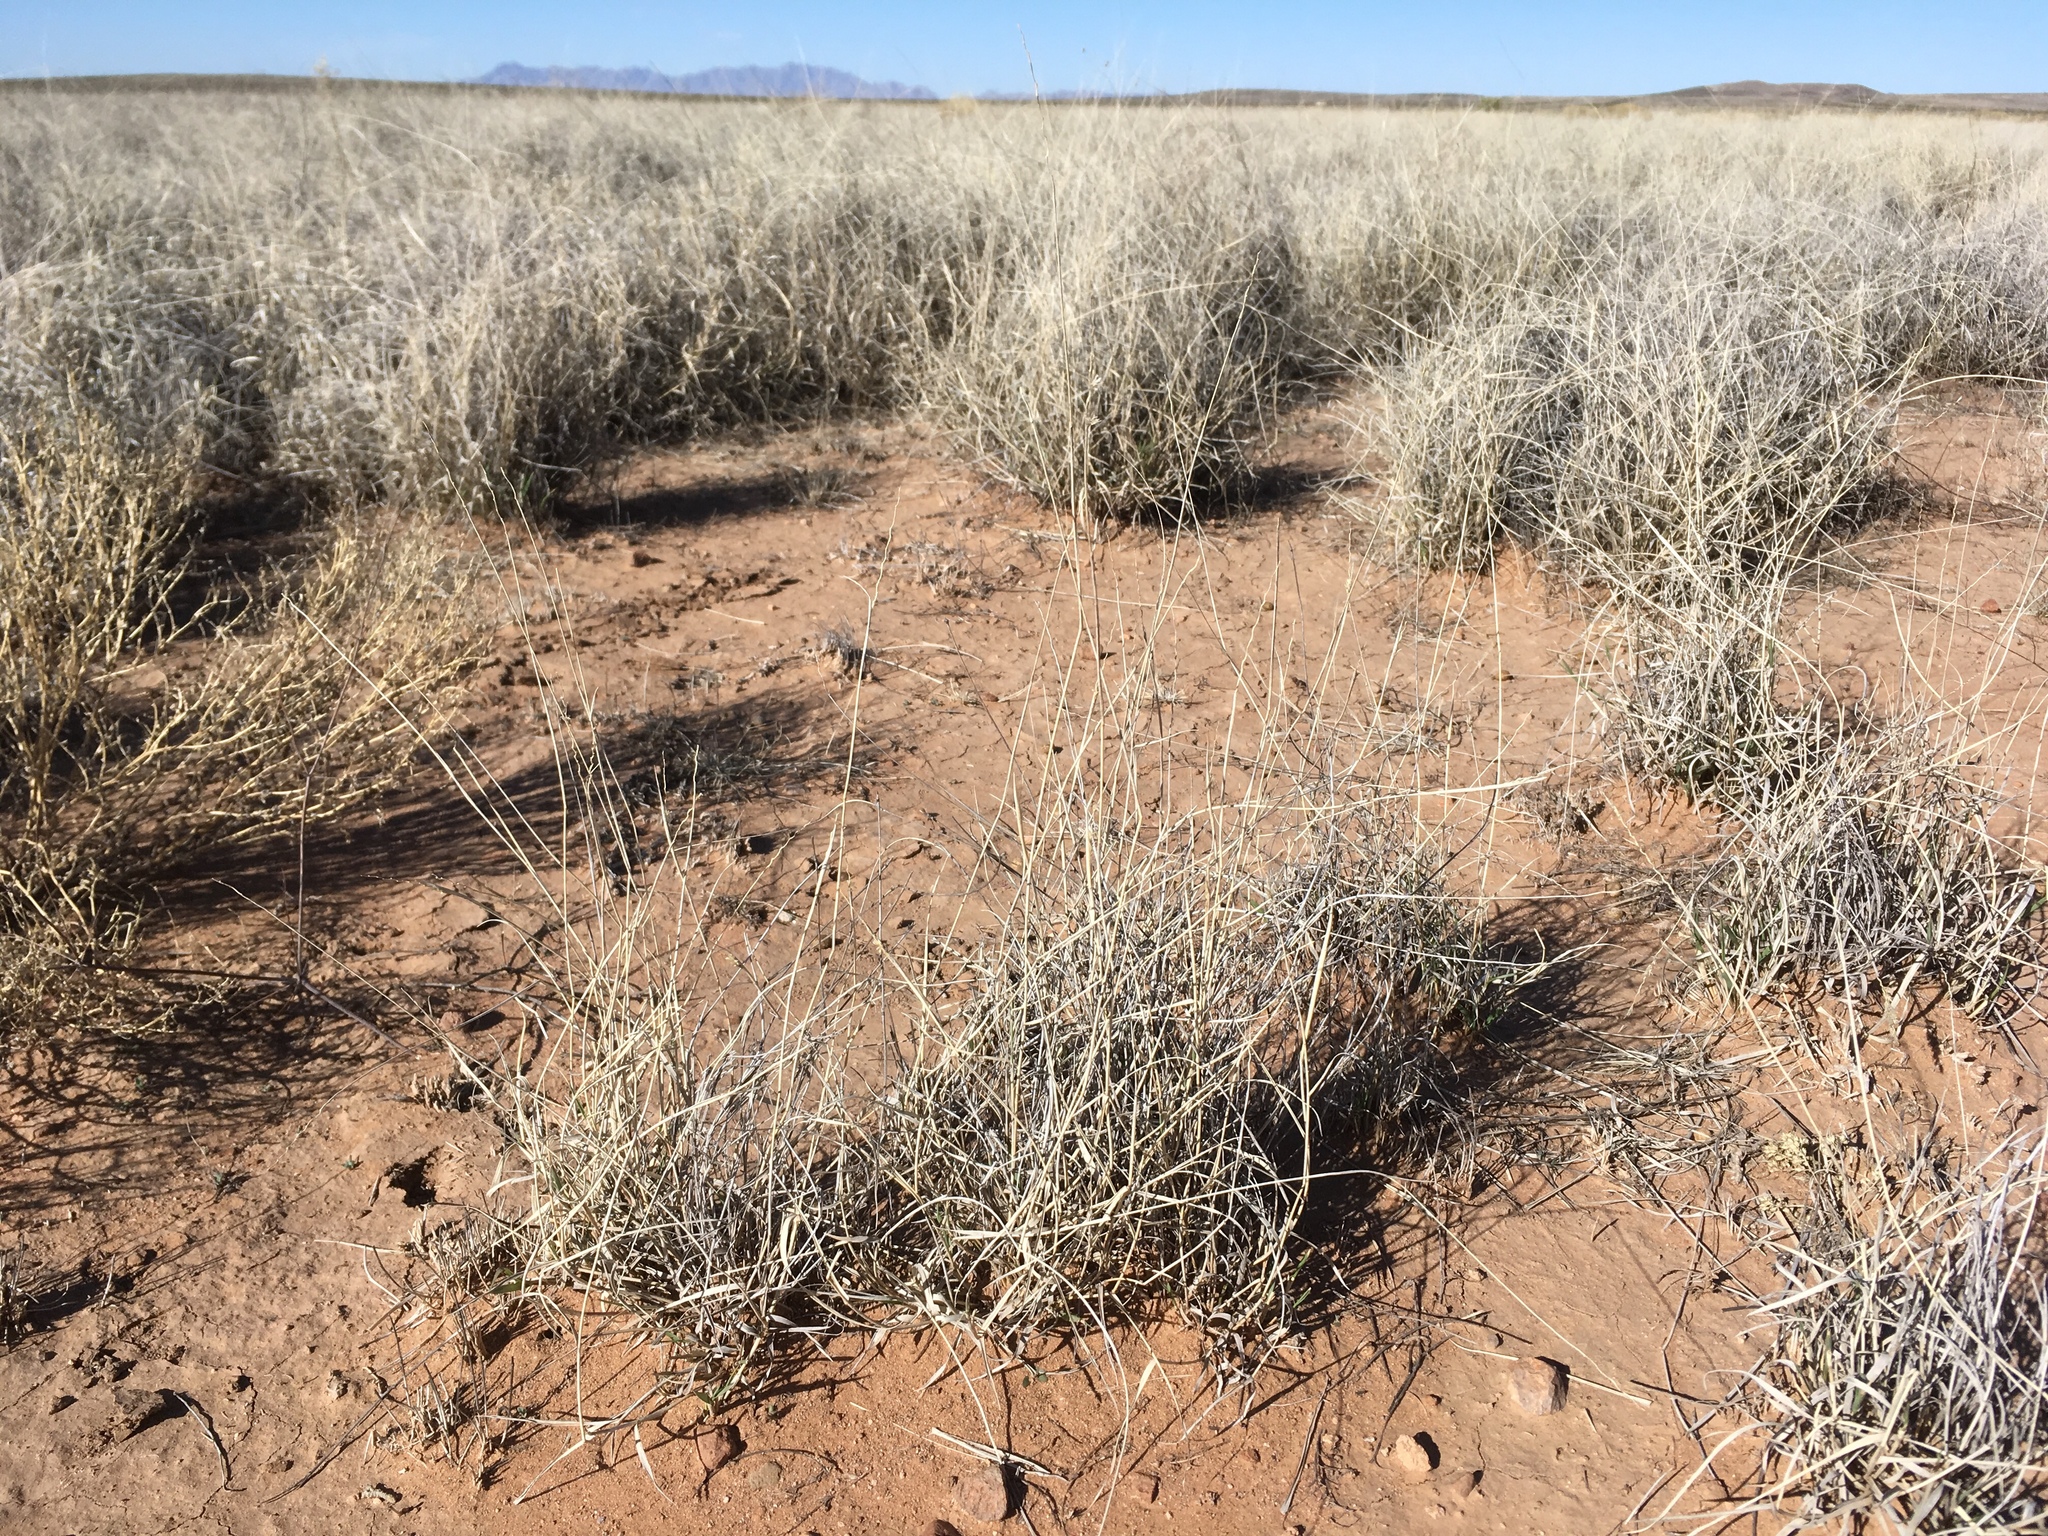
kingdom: Plantae
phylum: Tracheophyta
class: Liliopsida
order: Poales
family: Poaceae
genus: Hilaria
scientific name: Hilaria mutica
